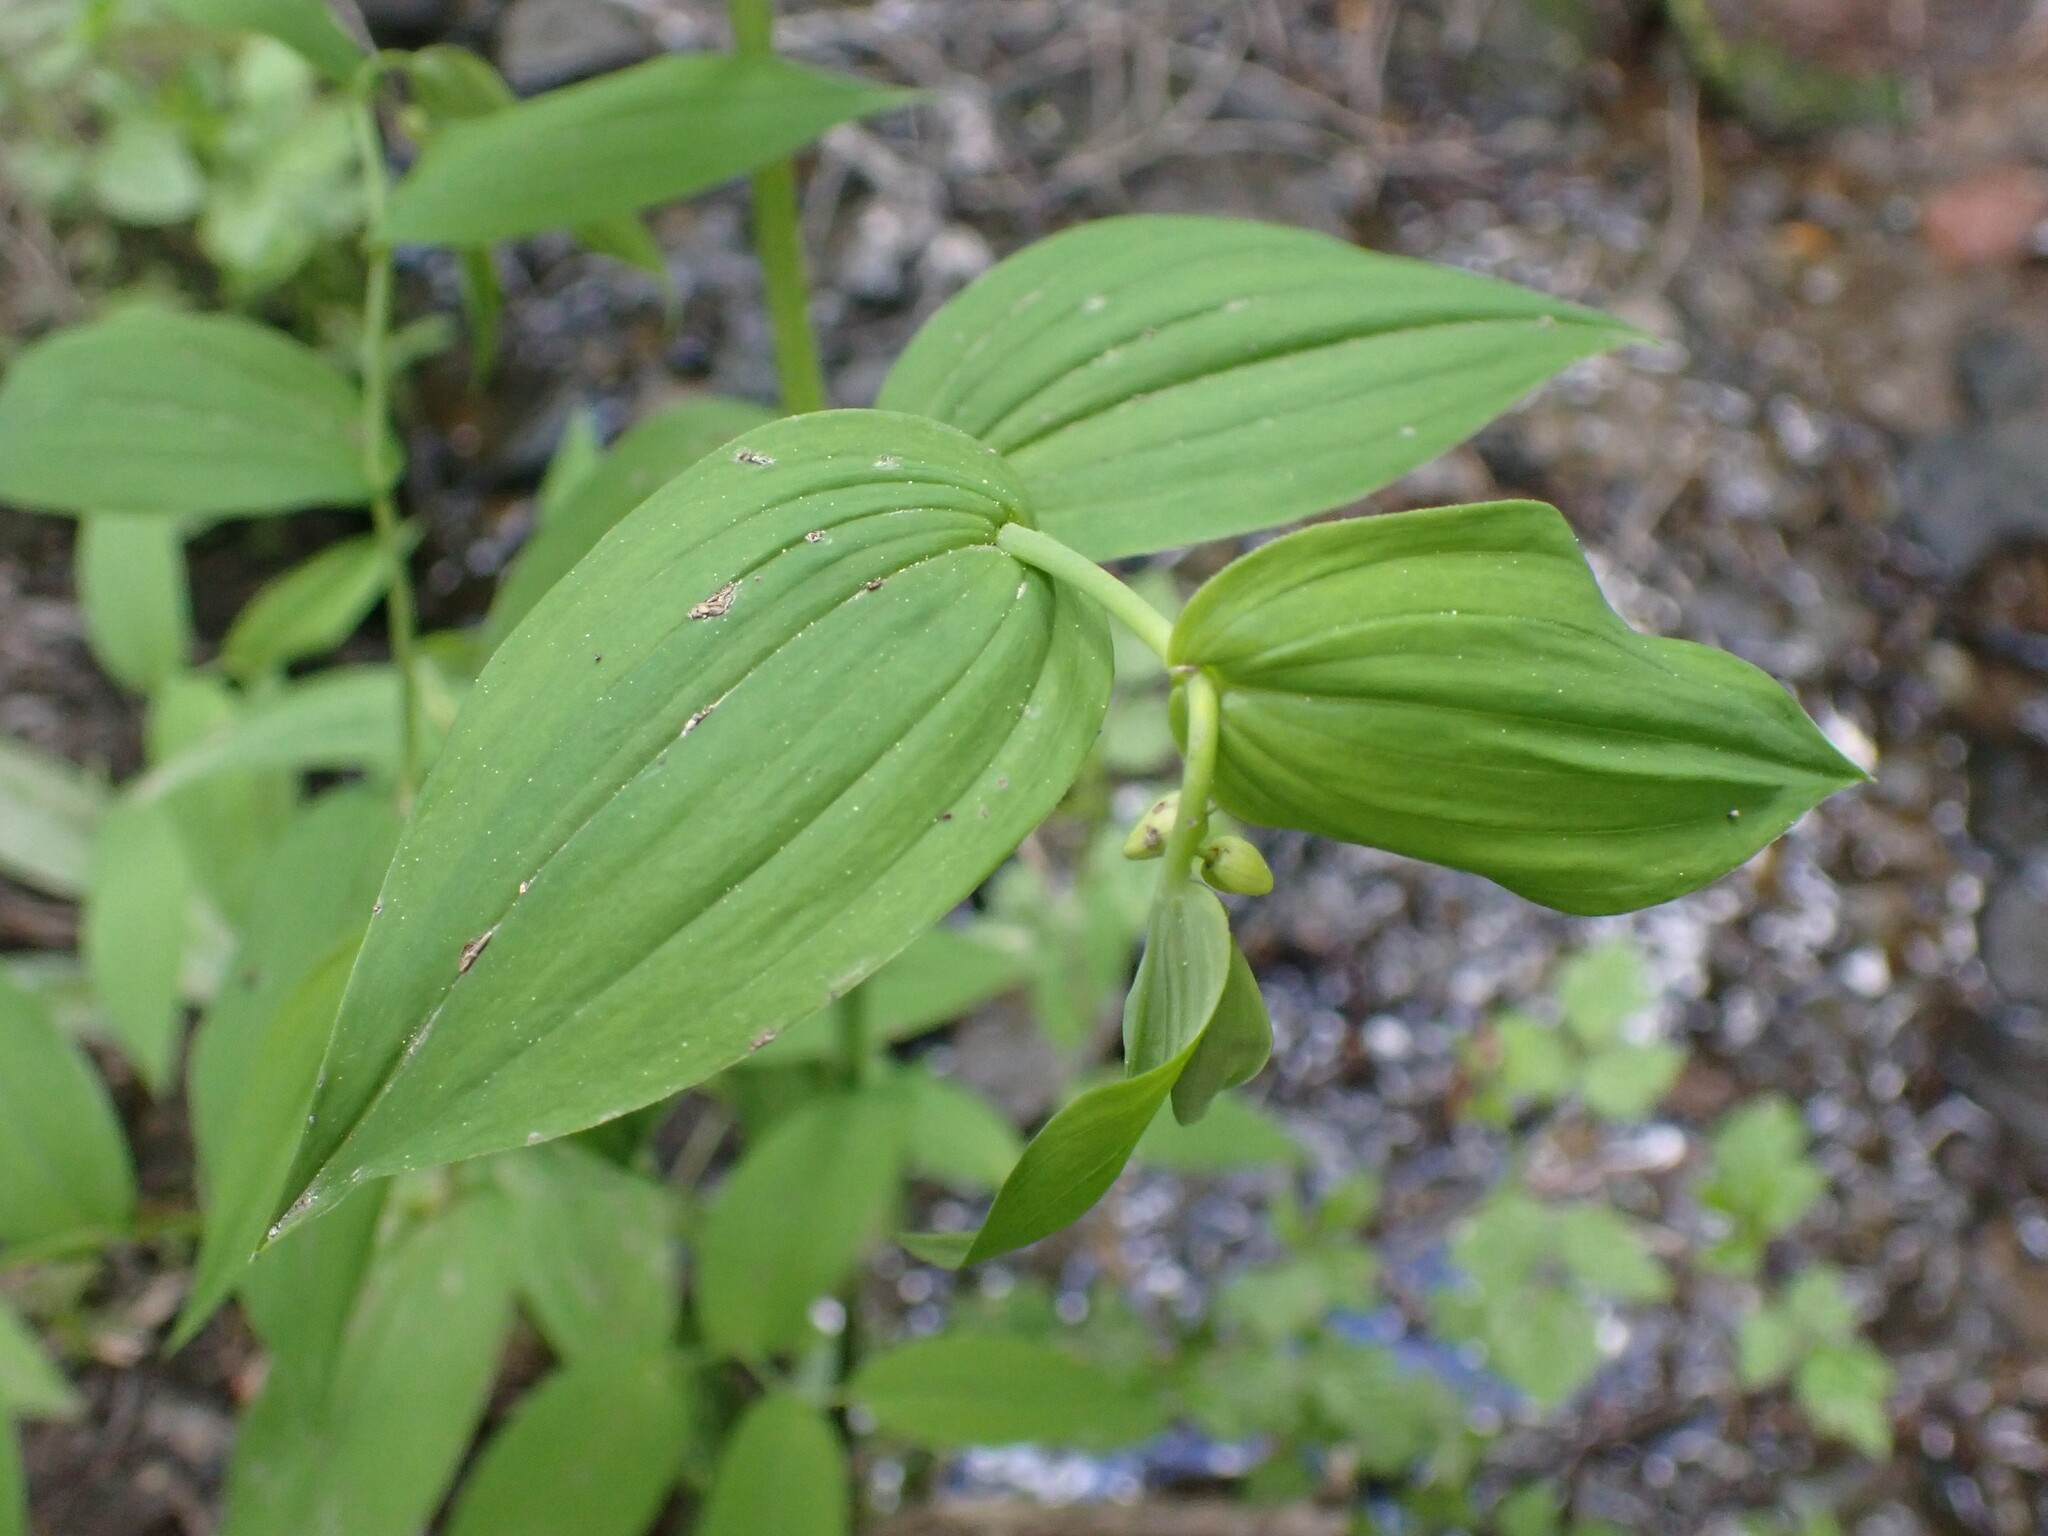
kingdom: Plantae
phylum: Tracheophyta
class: Liliopsida
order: Liliales
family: Liliaceae
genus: Streptopus
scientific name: Streptopus amplexifolius
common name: Clasp twisted stalk
